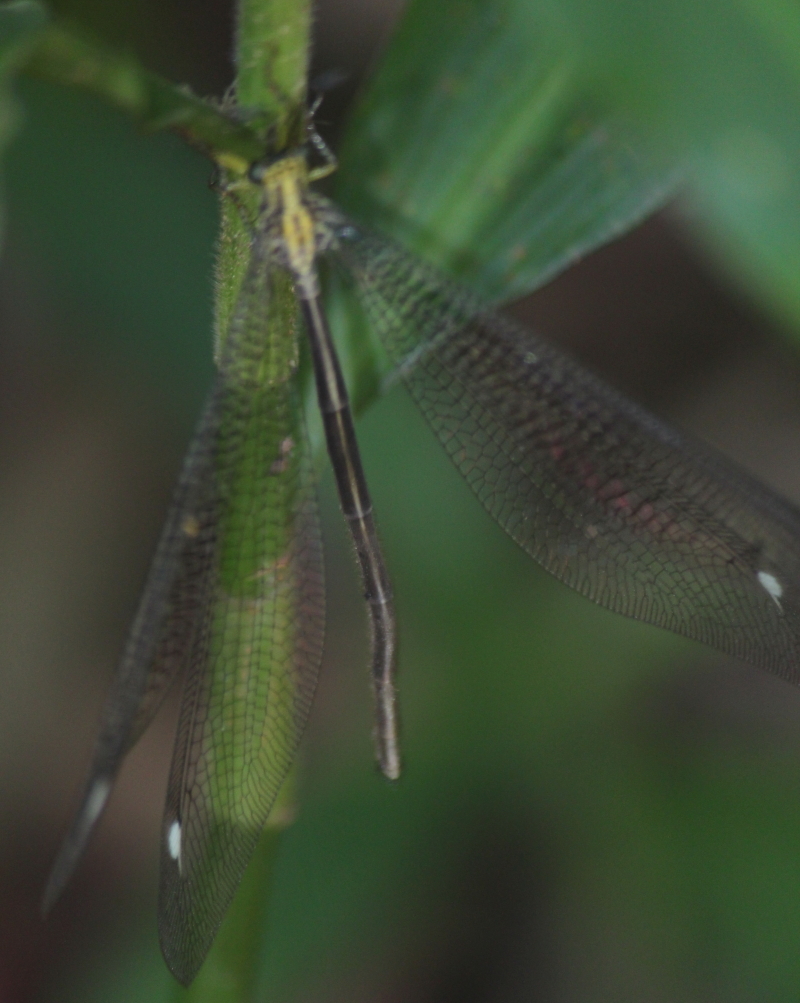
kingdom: Animalia
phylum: Arthropoda
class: Insecta
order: Neuroptera
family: Myrmeleontidae
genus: Banyutus
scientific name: Banyutus lethalis
